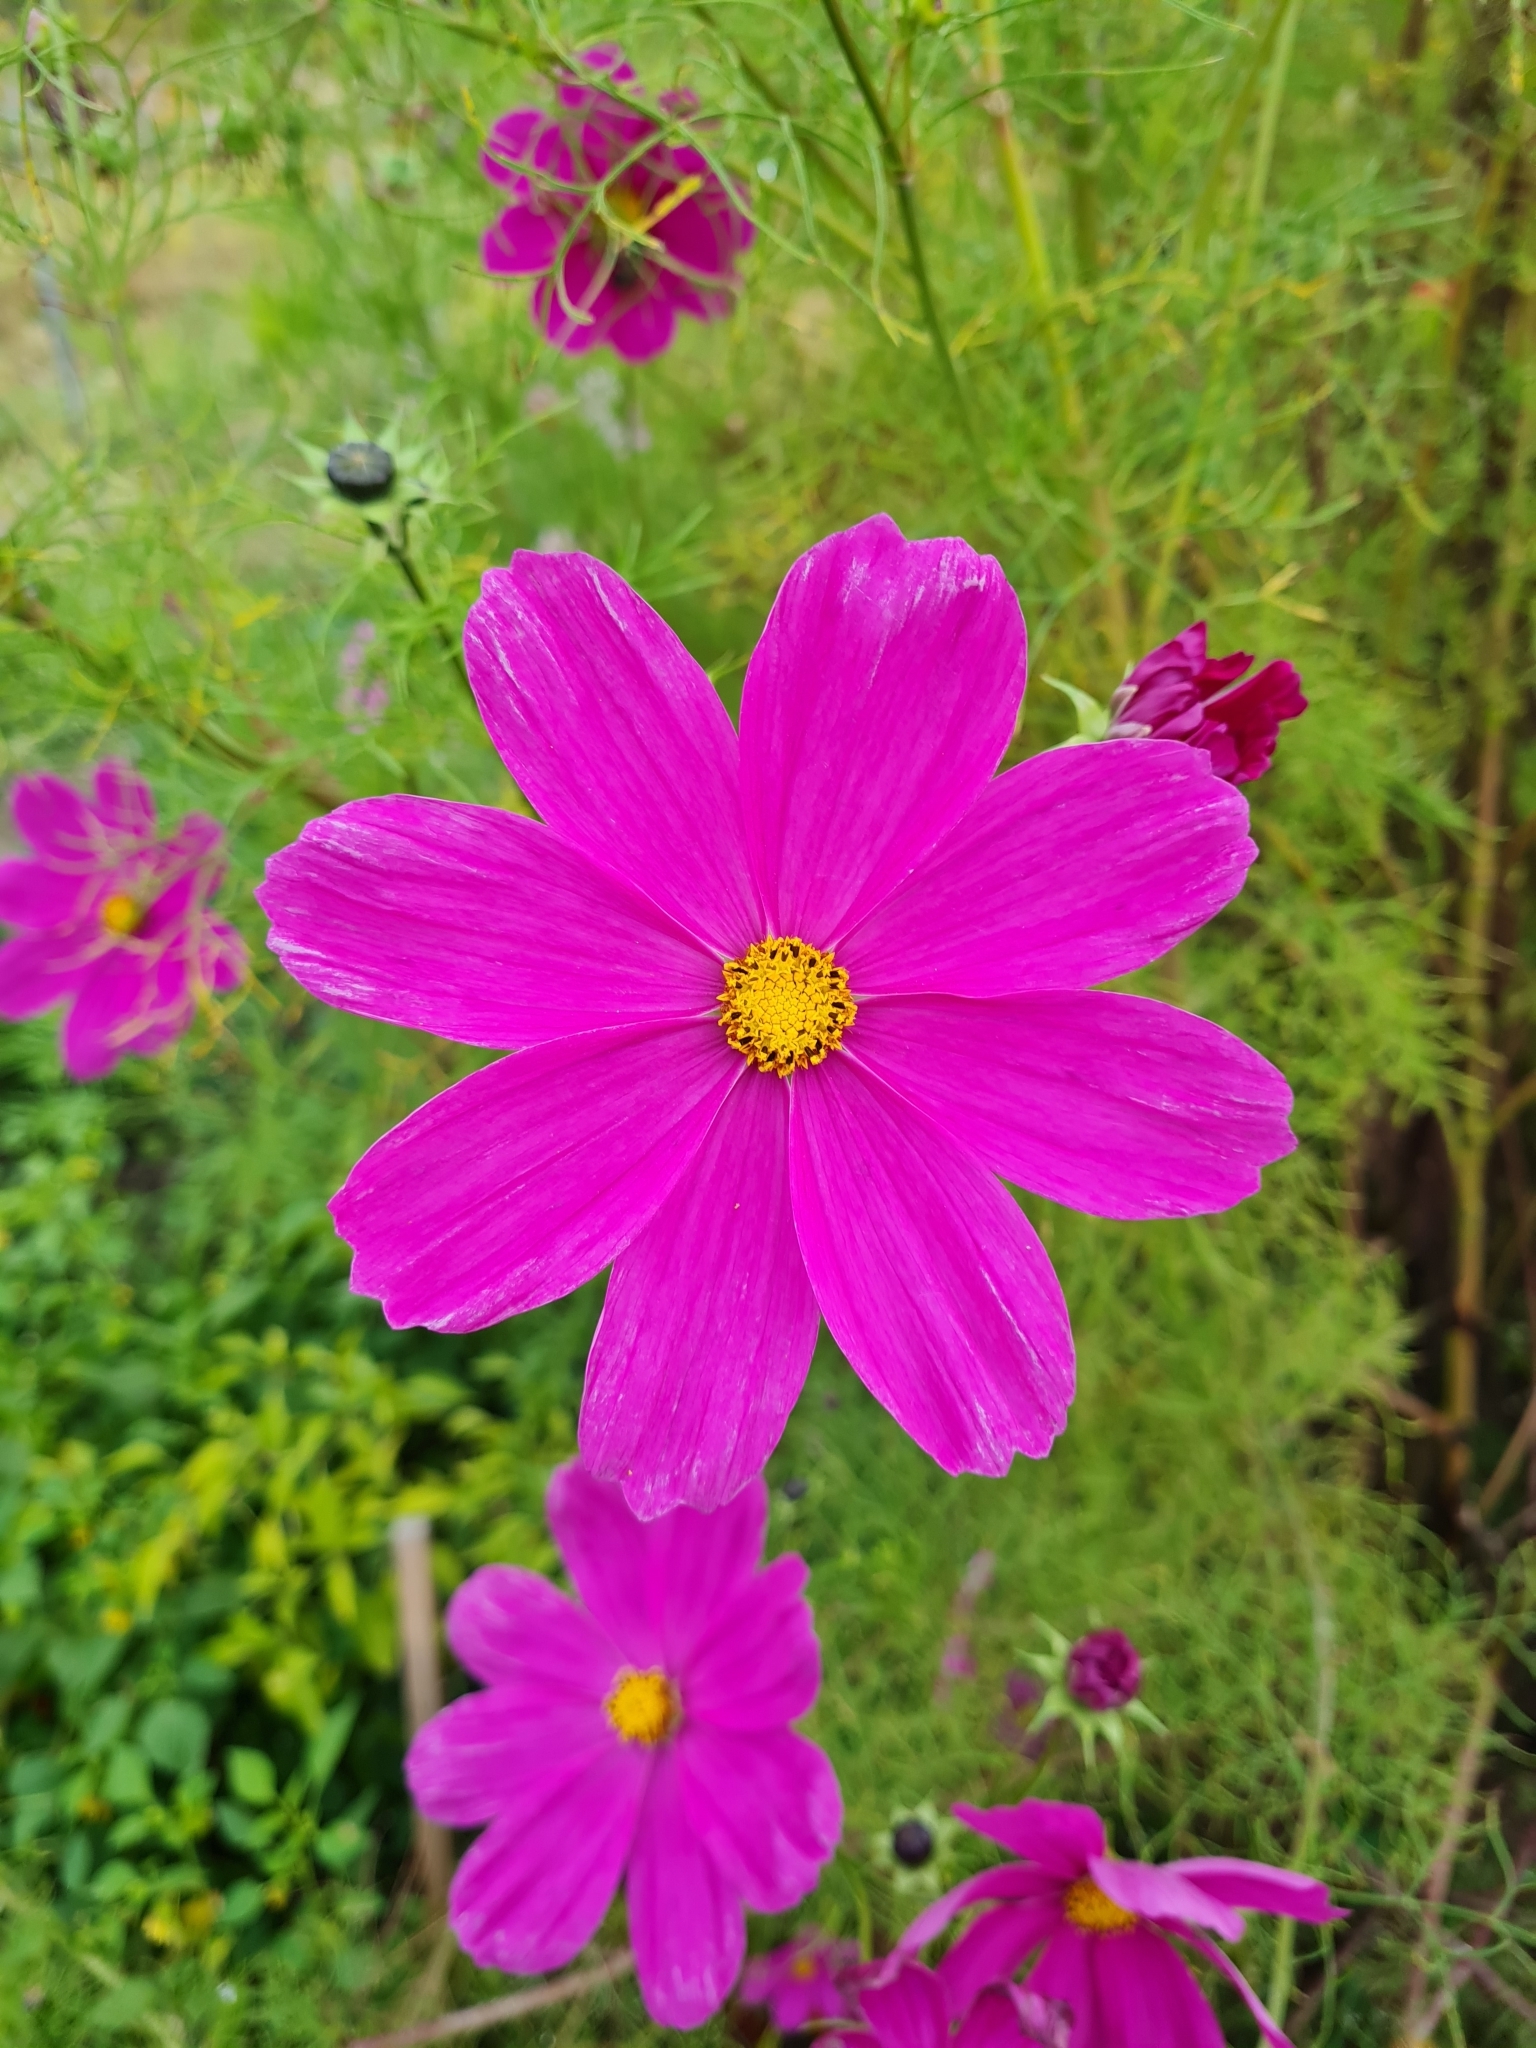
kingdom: Plantae
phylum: Tracheophyta
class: Magnoliopsida
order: Asterales
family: Asteraceae
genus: Cosmos
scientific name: Cosmos bipinnatus
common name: Garden cosmos
